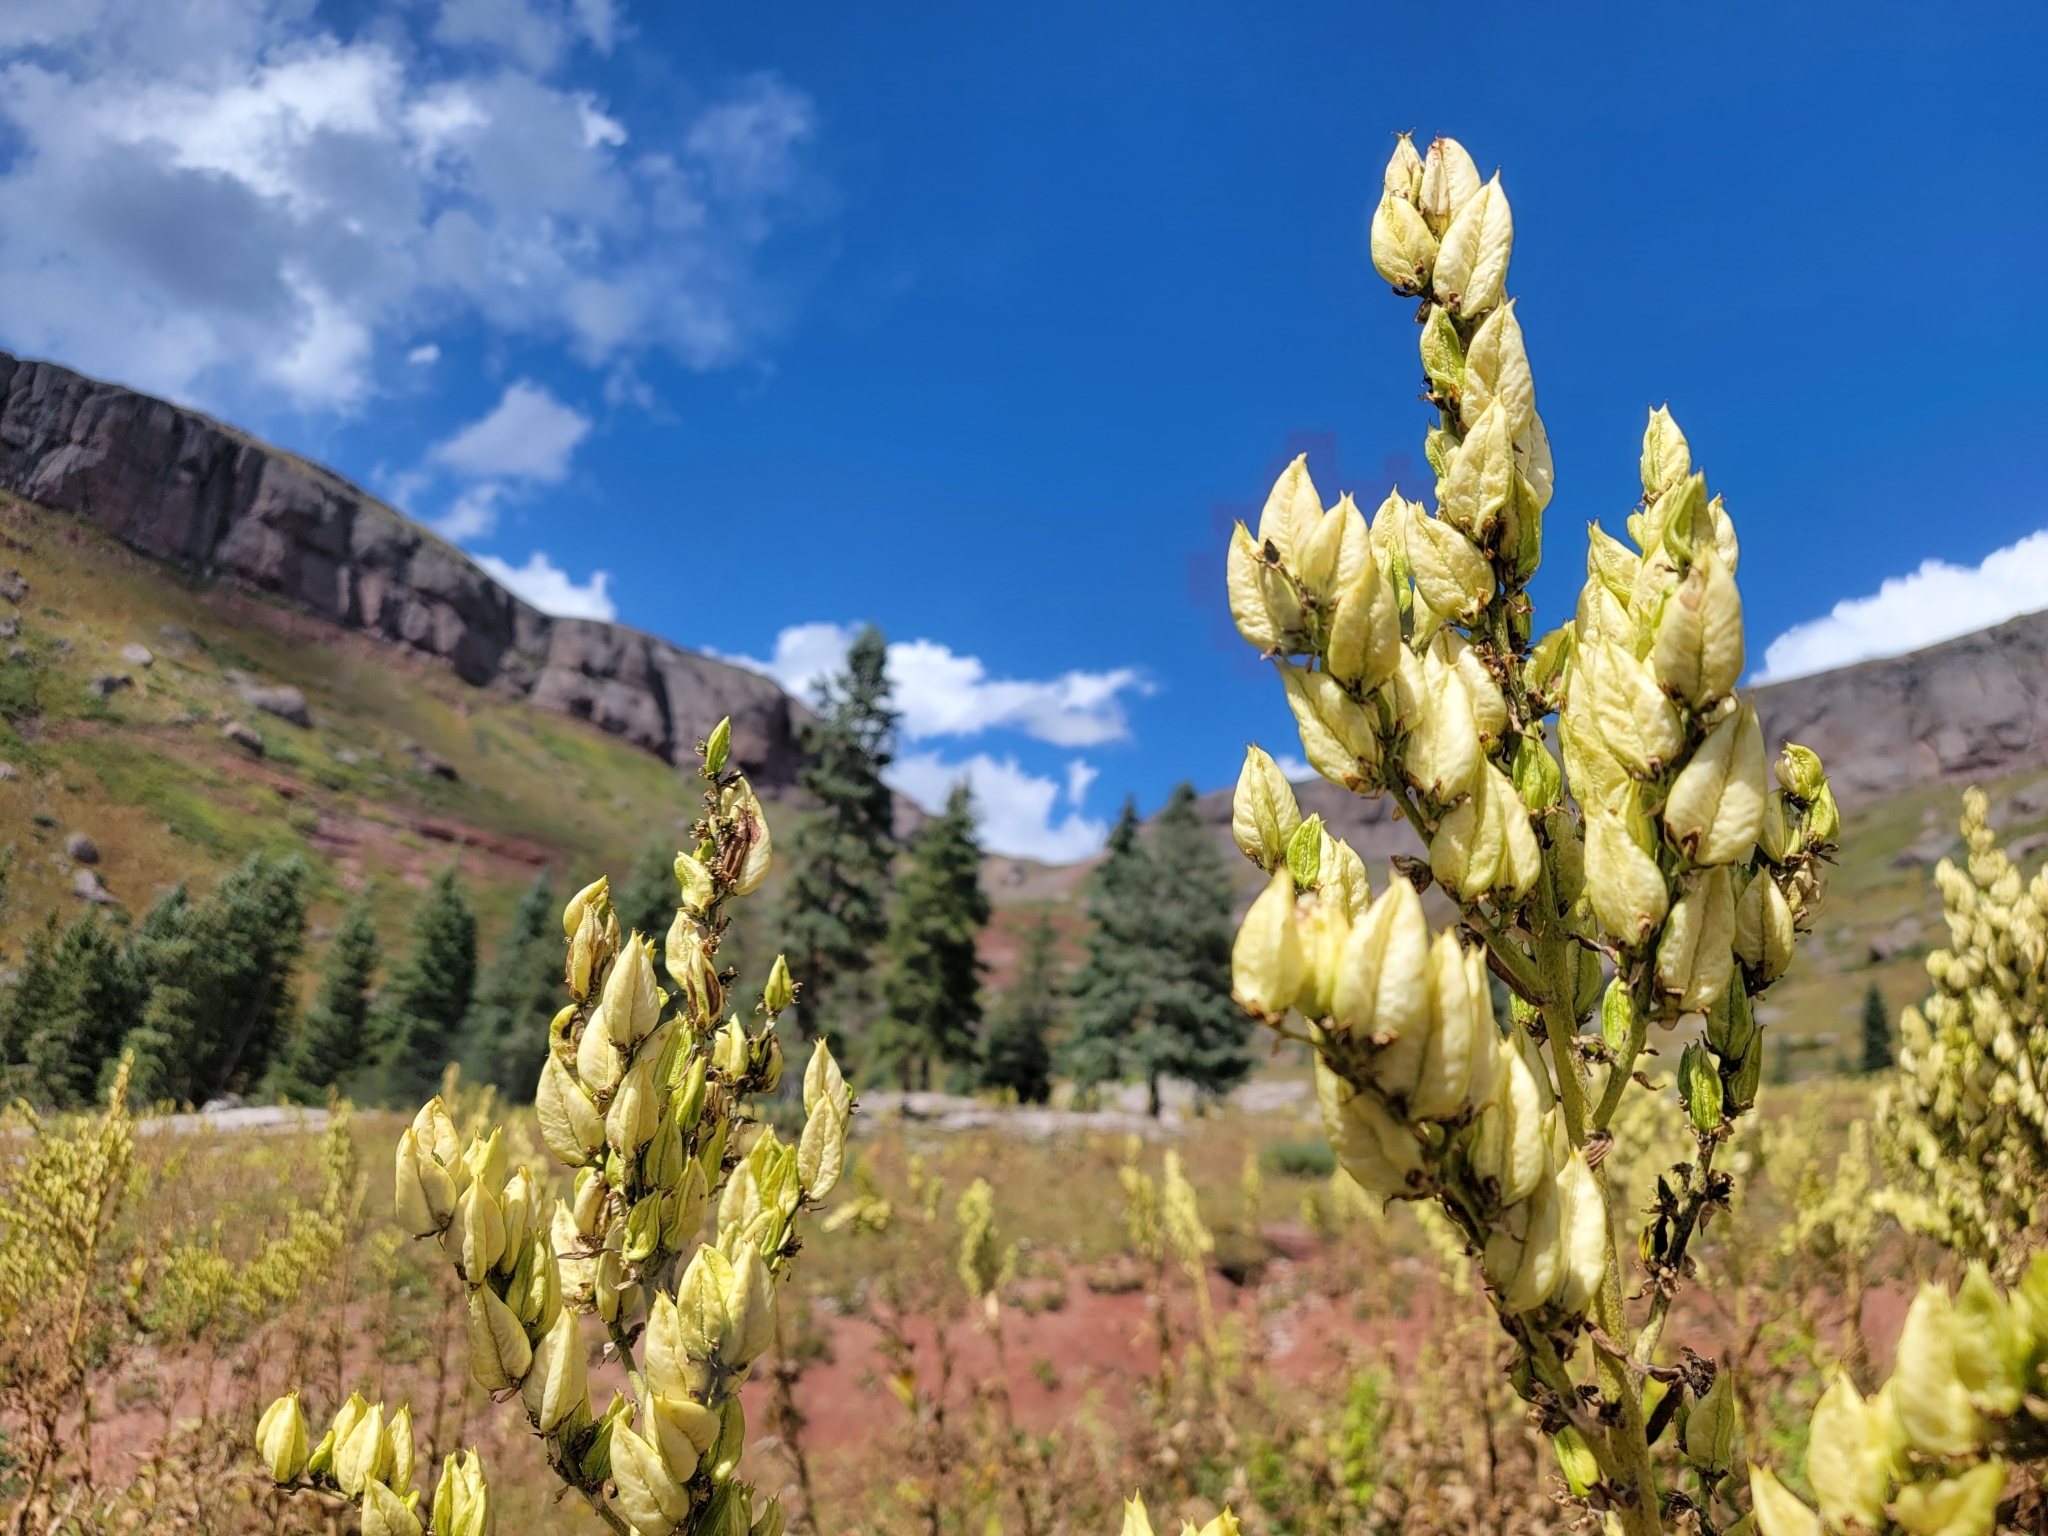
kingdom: Plantae
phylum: Tracheophyta
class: Liliopsida
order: Liliales
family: Melanthiaceae
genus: Veratrum
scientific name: Veratrum californicum
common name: California veratrum
